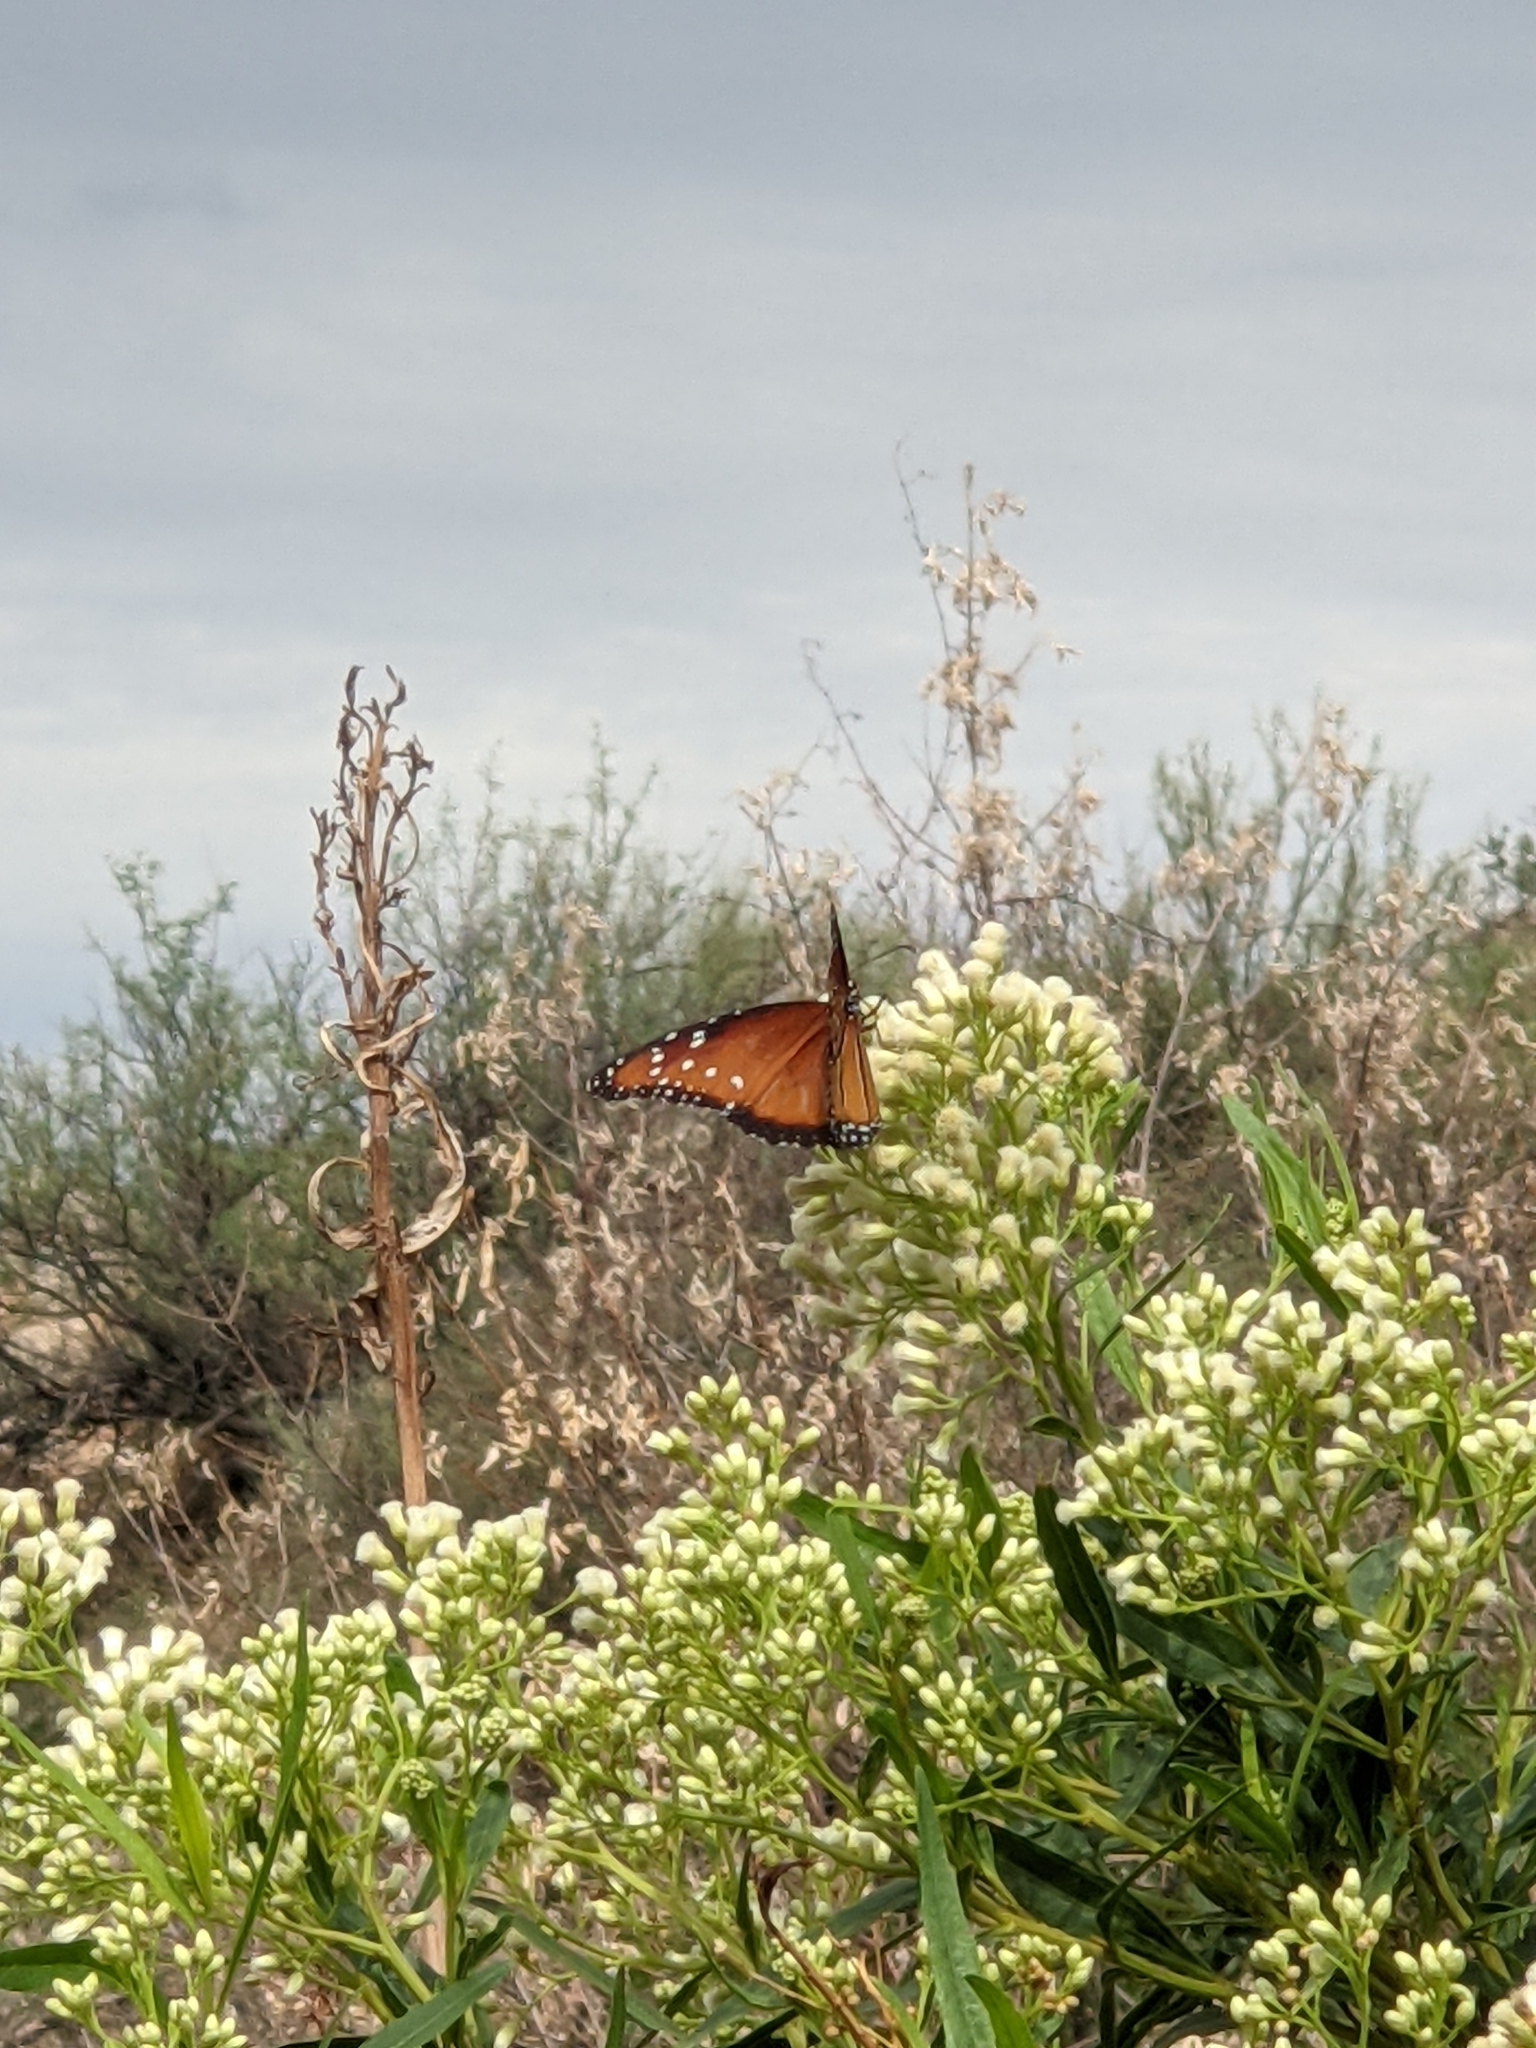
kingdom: Animalia
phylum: Arthropoda
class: Insecta
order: Lepidoptera
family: Nymphalidae
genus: Danaus
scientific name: Danaus gilippus
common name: Queen
